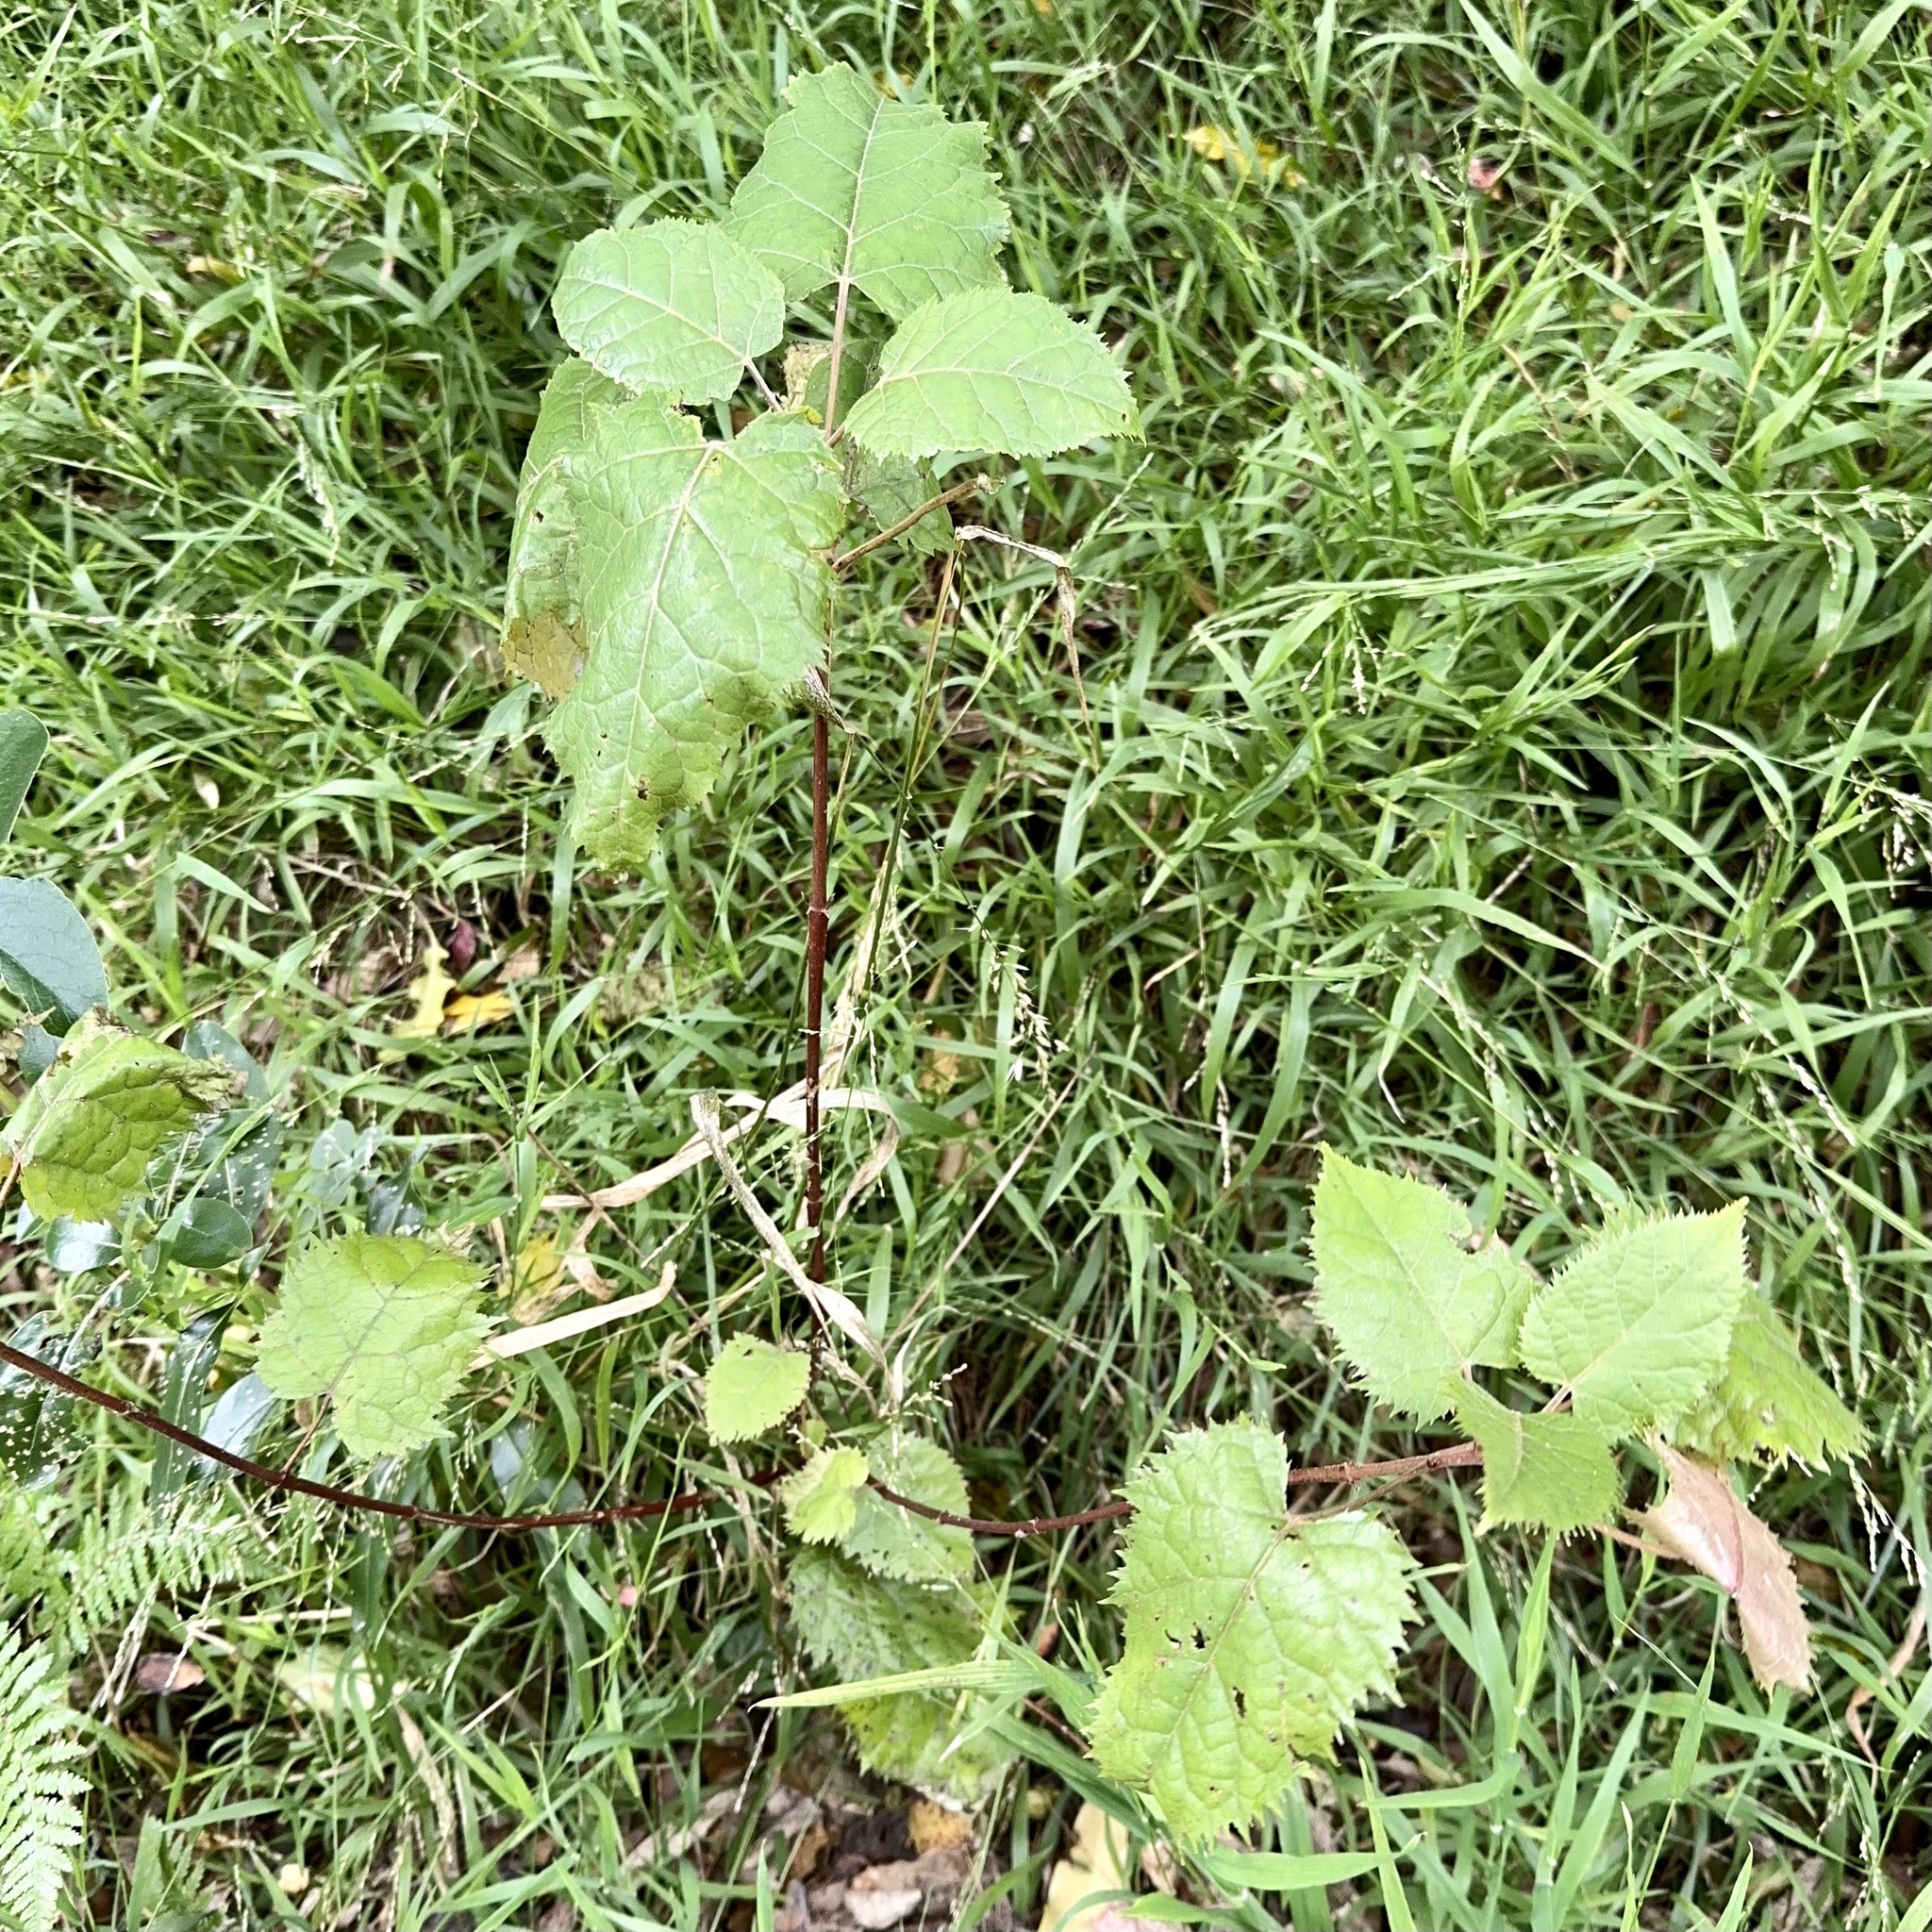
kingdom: Plantae
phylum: Tracheophyta
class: Magnoliopsida
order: Oxalidales
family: Elaeocarpaceae
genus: Aristotelia
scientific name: Aristotelia serrata
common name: New zealand wineberry
